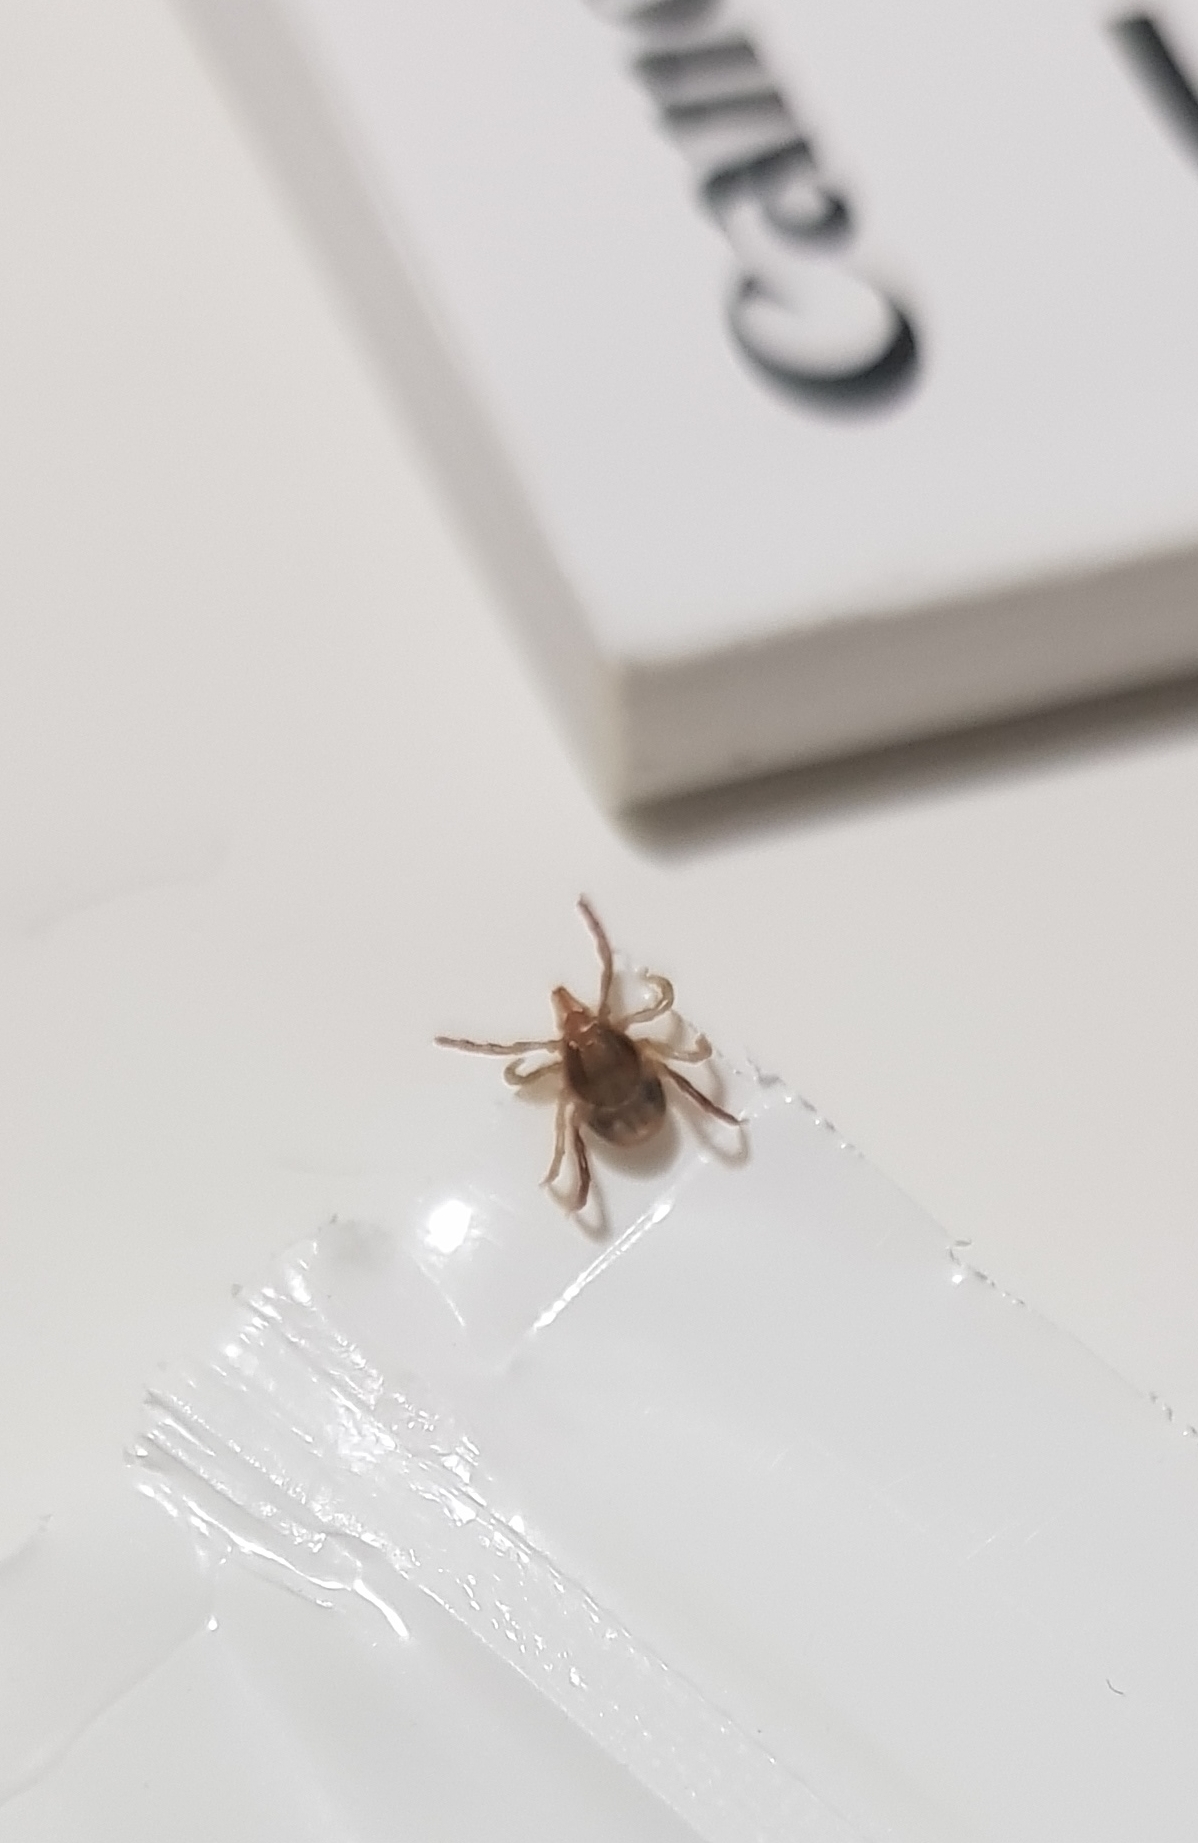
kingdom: Animalia
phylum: Arthropoda
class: Arachnida
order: Ixodida
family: Ixodidae
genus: Ixodes
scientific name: Ixodes holocyclus
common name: Australian paralysis tick
